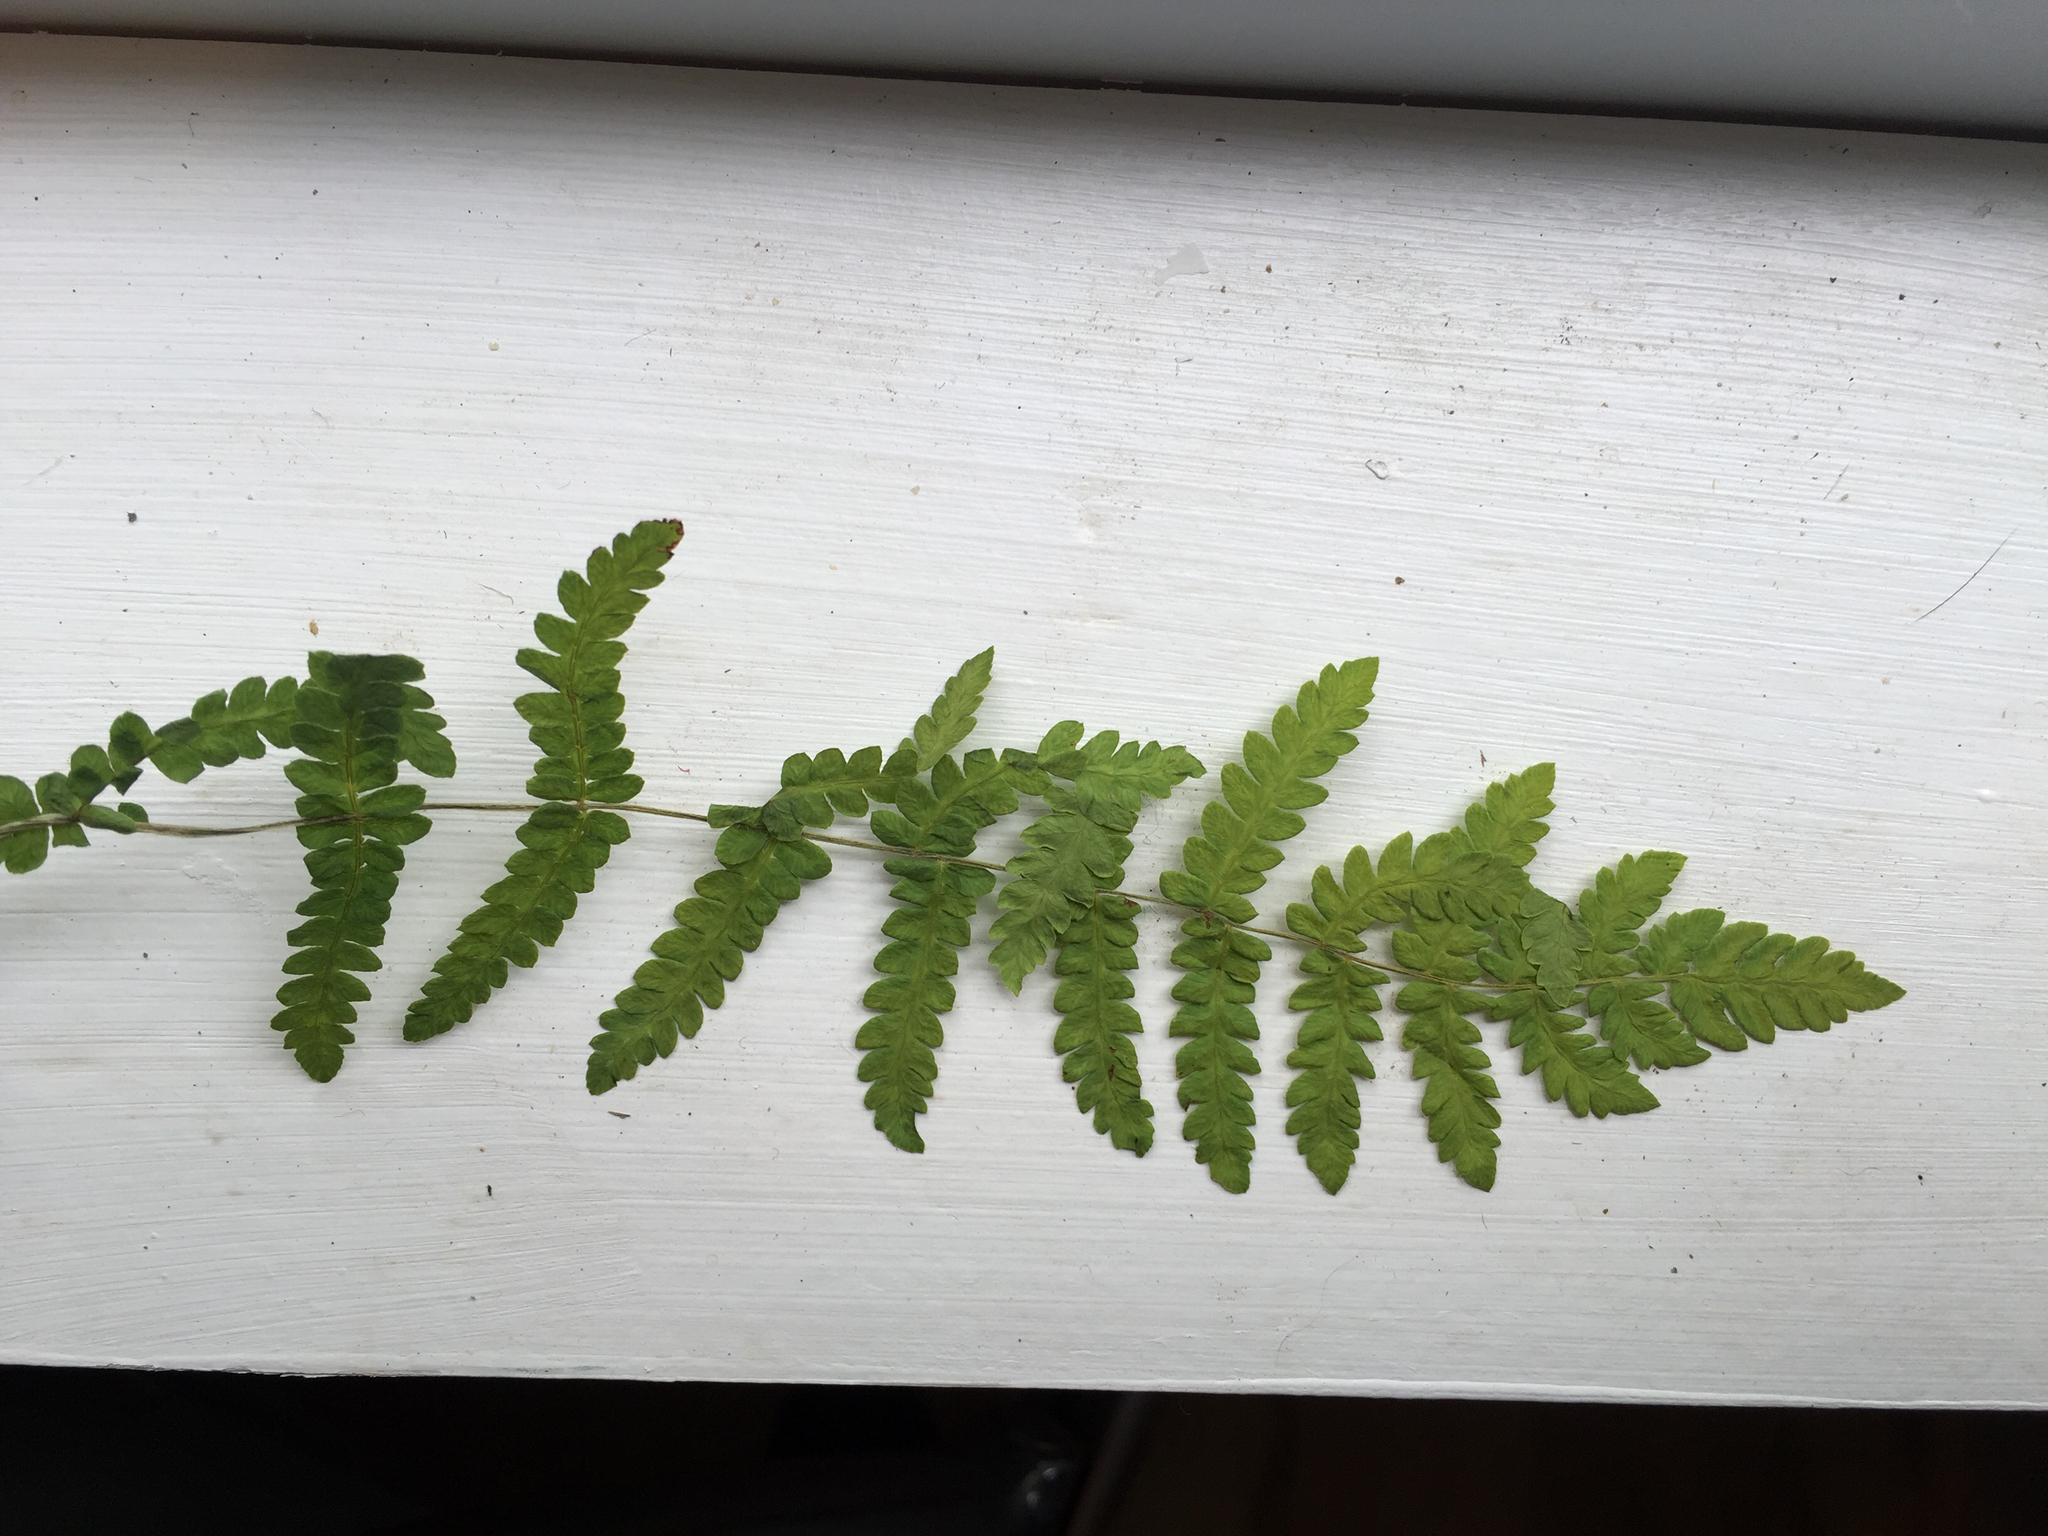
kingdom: Plantae
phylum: Tracheophyta
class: Polypodiopsida
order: Polypodiales
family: Thelypteridaceae
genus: Thelypteris
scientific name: Thelypteris palustris
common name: Marsh fern
